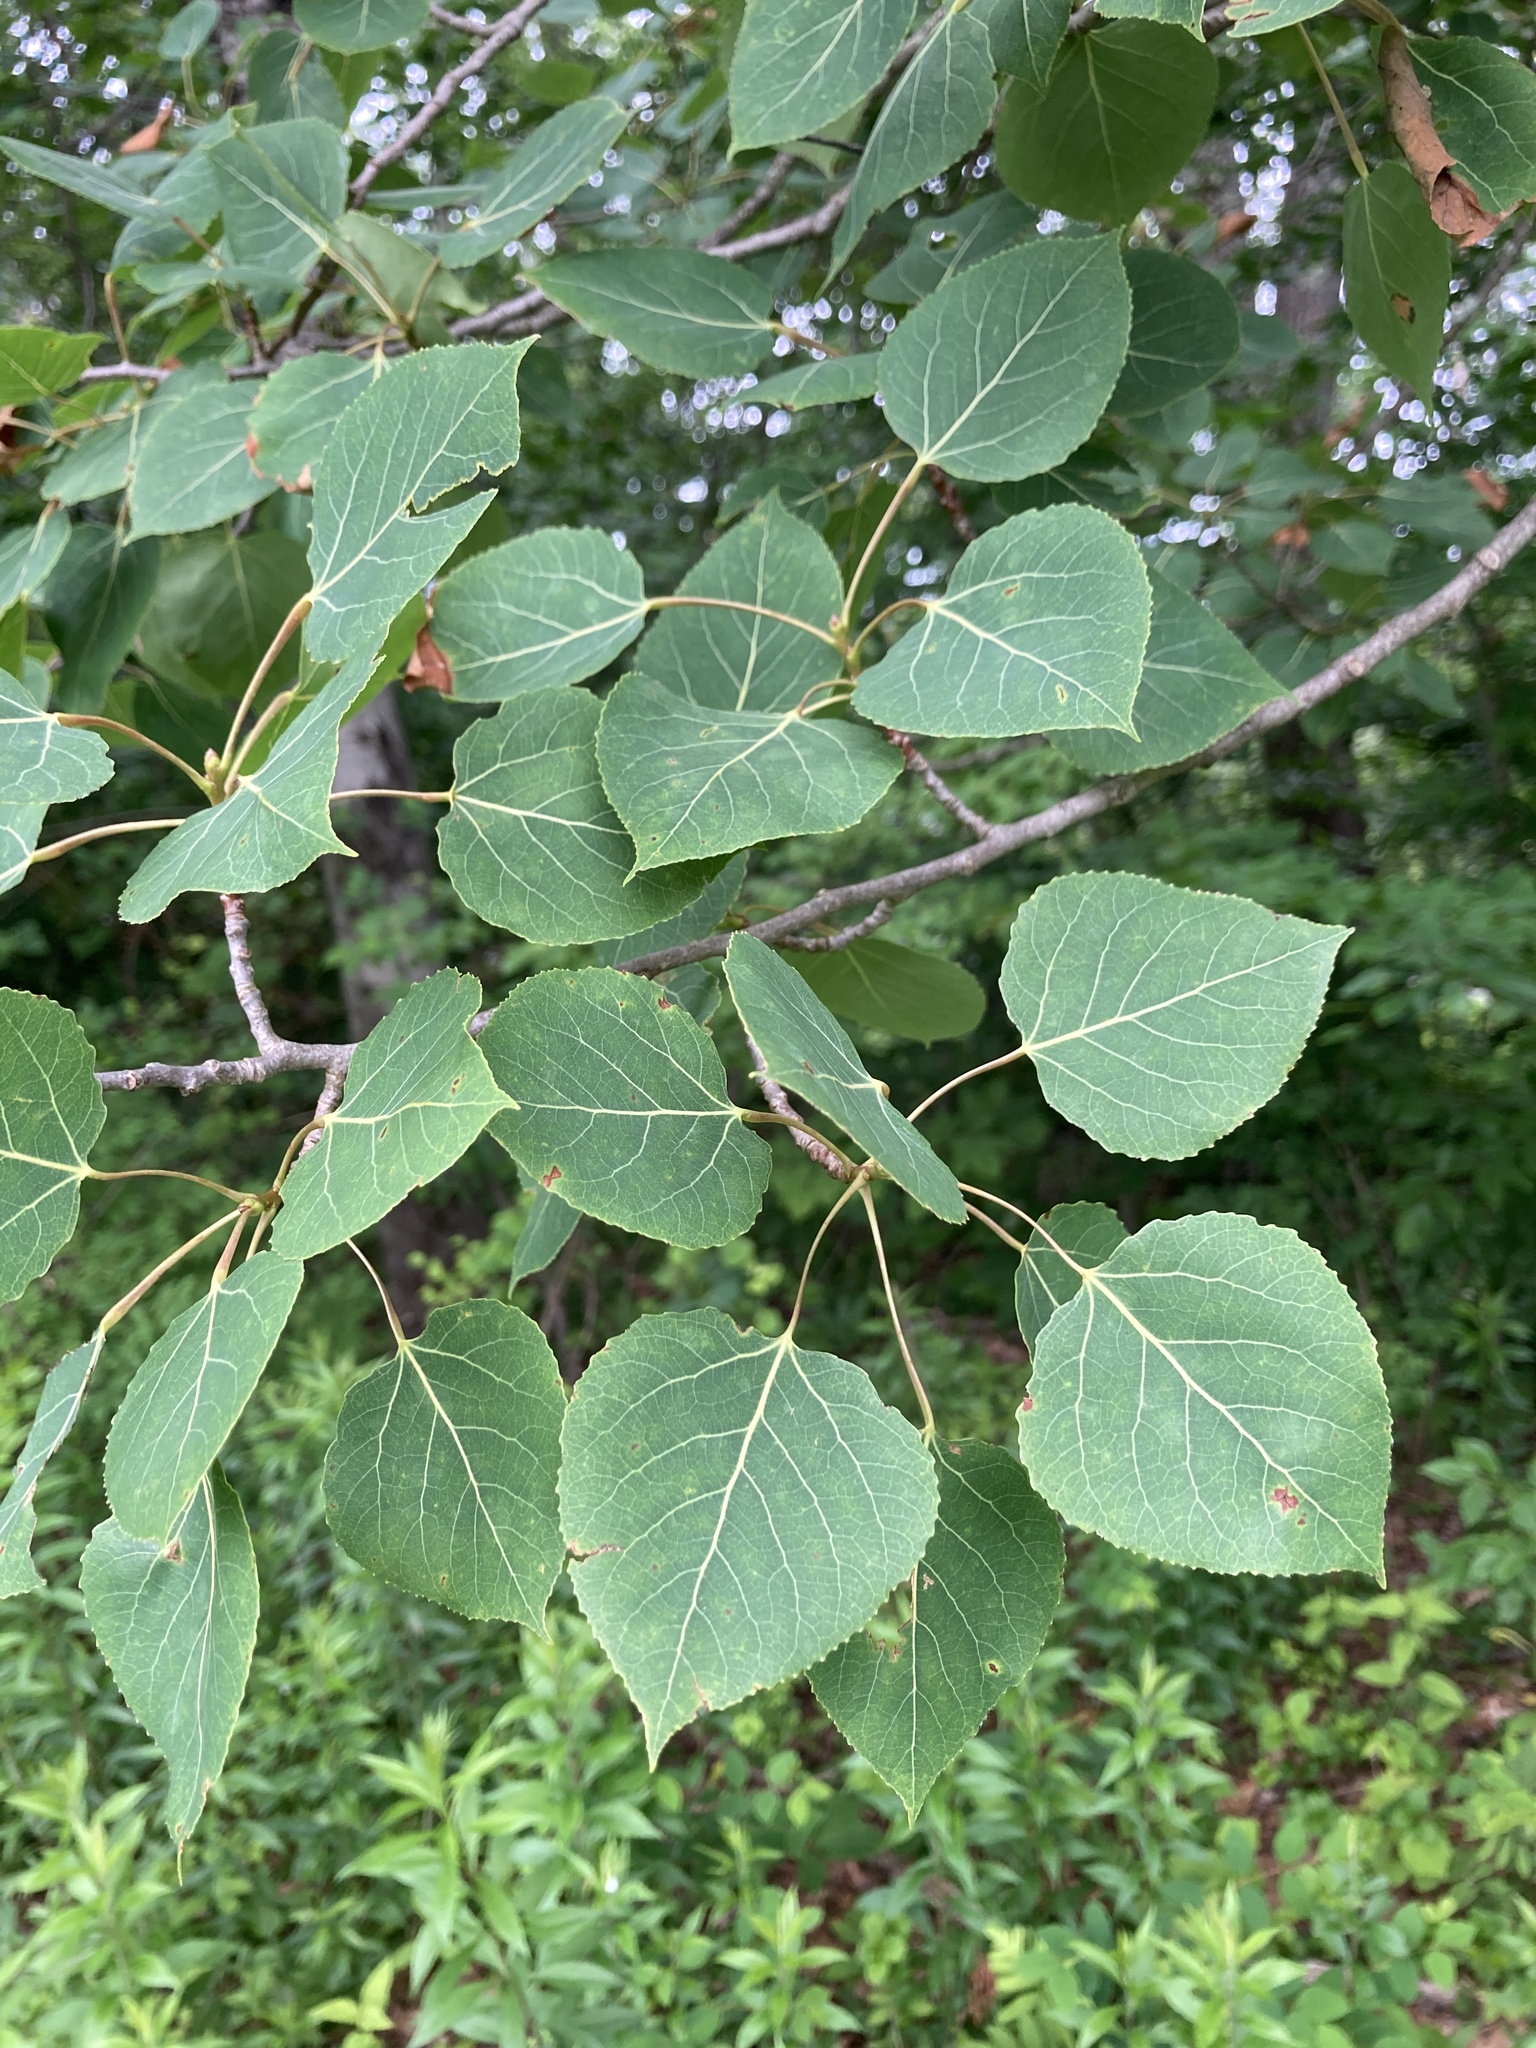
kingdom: Plantae
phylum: Tracheophyta
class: Magnoliopsida
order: Malpighiales
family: Salicaceae
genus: Populus
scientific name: Populus tremuloides
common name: Quaking aspen
